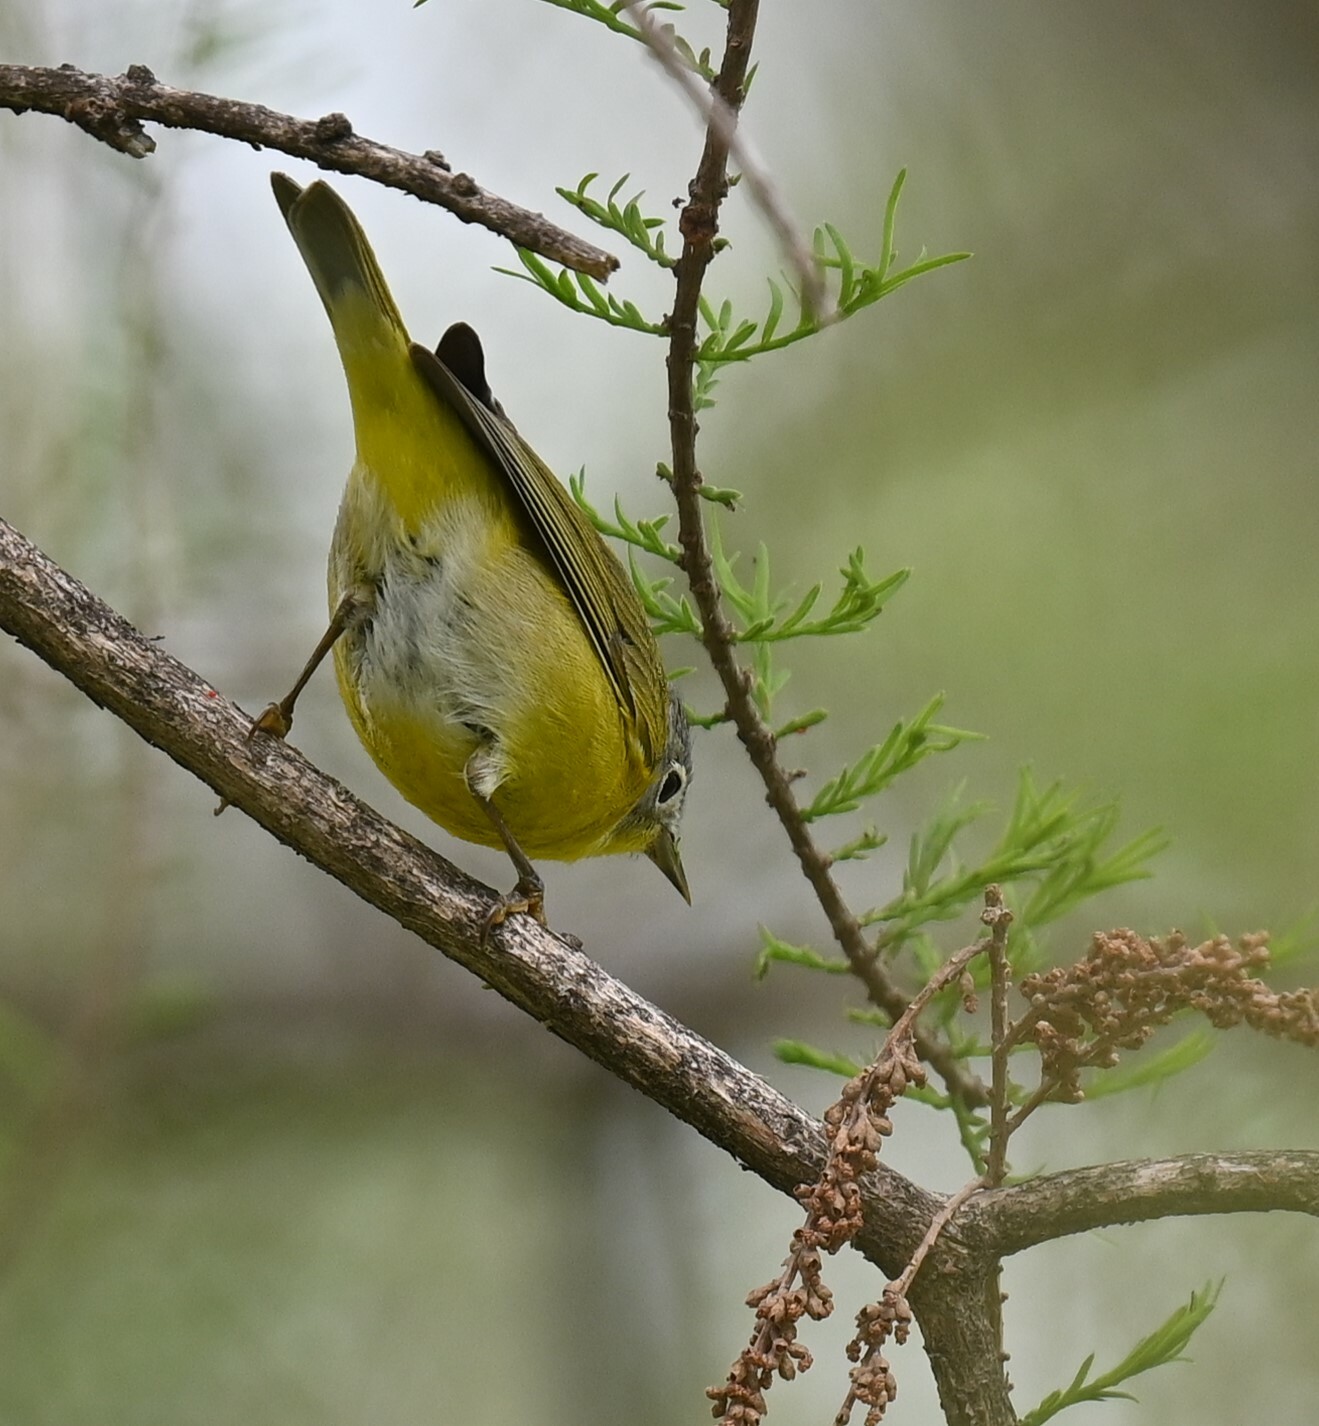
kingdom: Animalia
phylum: Chordata
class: Aves
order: Passeriformes
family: Parulidae
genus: Leiothlypis
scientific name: Leiothlypis ruficapilla
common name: Nashville warbler
